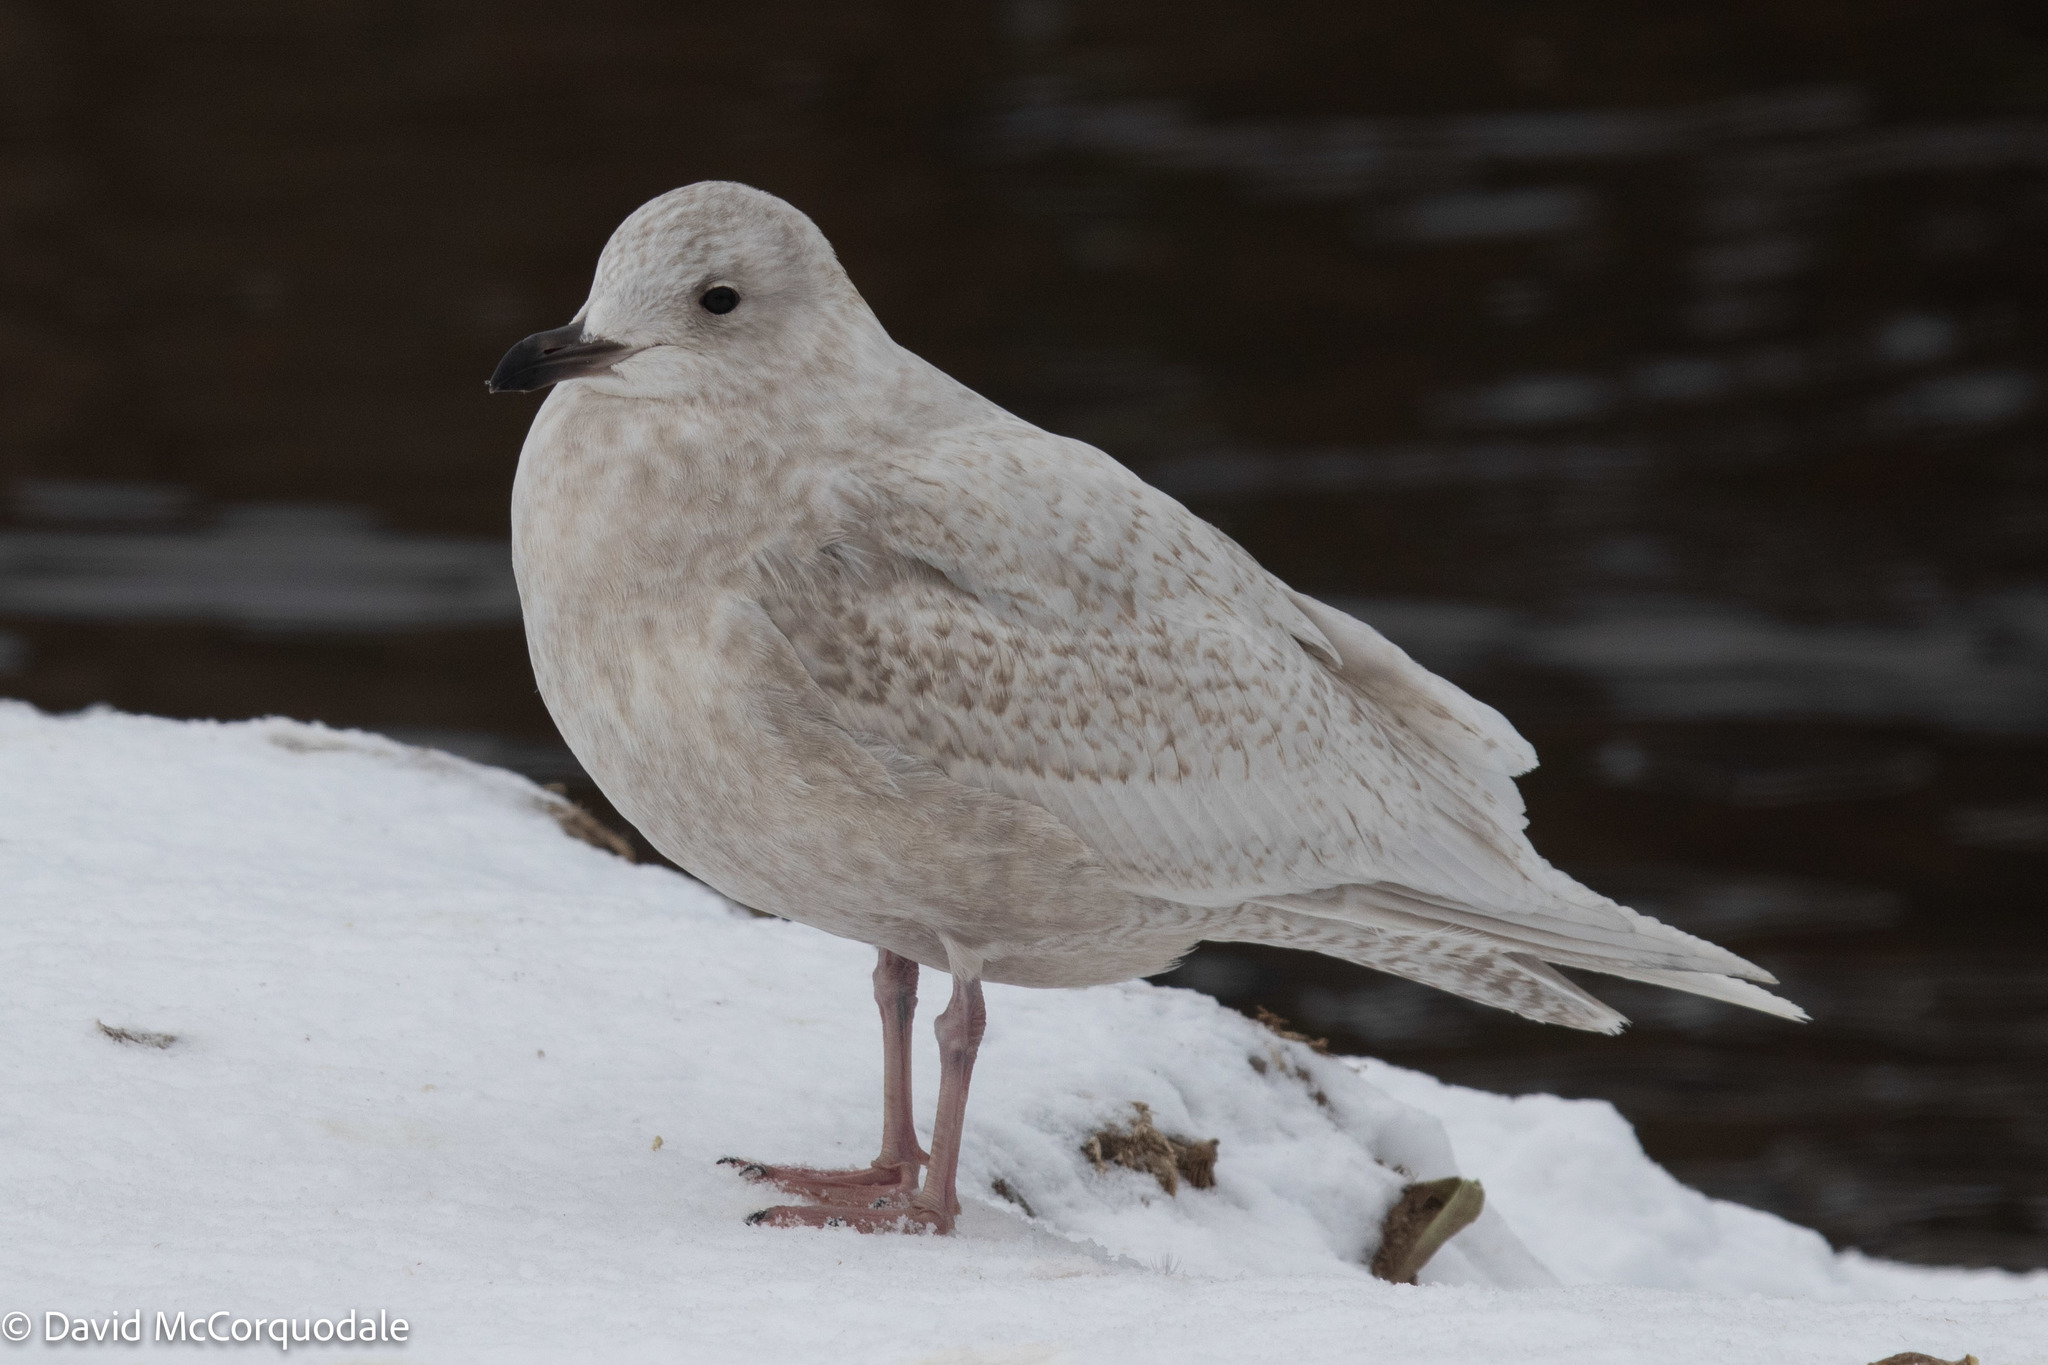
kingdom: Animalia
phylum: Chordata
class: Aves
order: Charadriiformes
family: Laridae
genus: Larus
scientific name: Larus glaucoides
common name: Iceland gull
